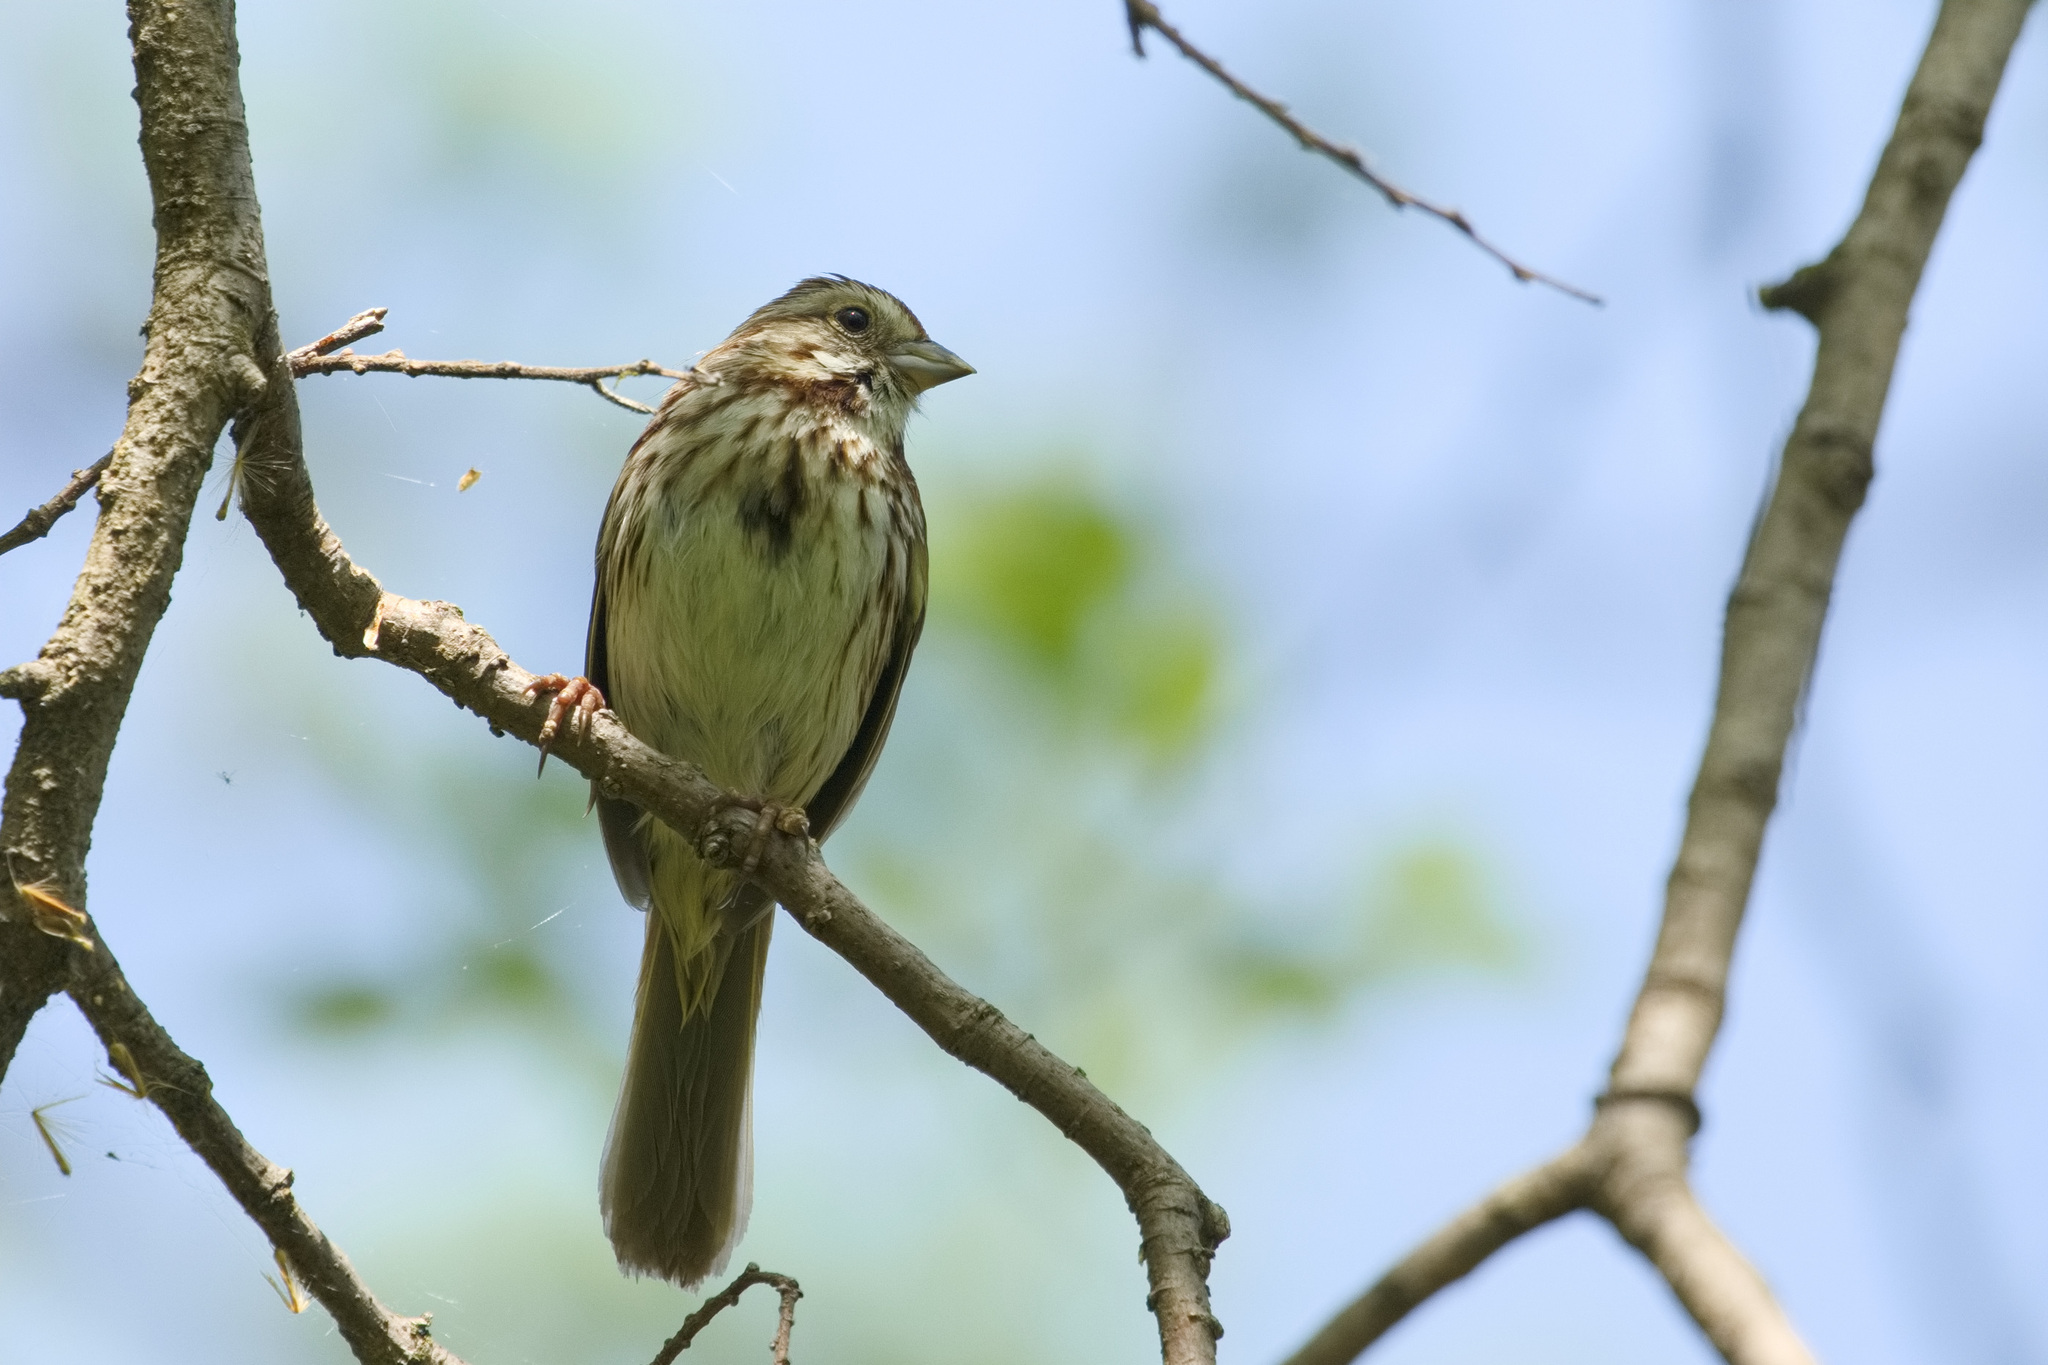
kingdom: Animalia
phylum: Chordata
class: Aves
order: Passeriformes
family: Passerellidae
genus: Melospiza
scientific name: Melospiza melodia
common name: Song sparrow
